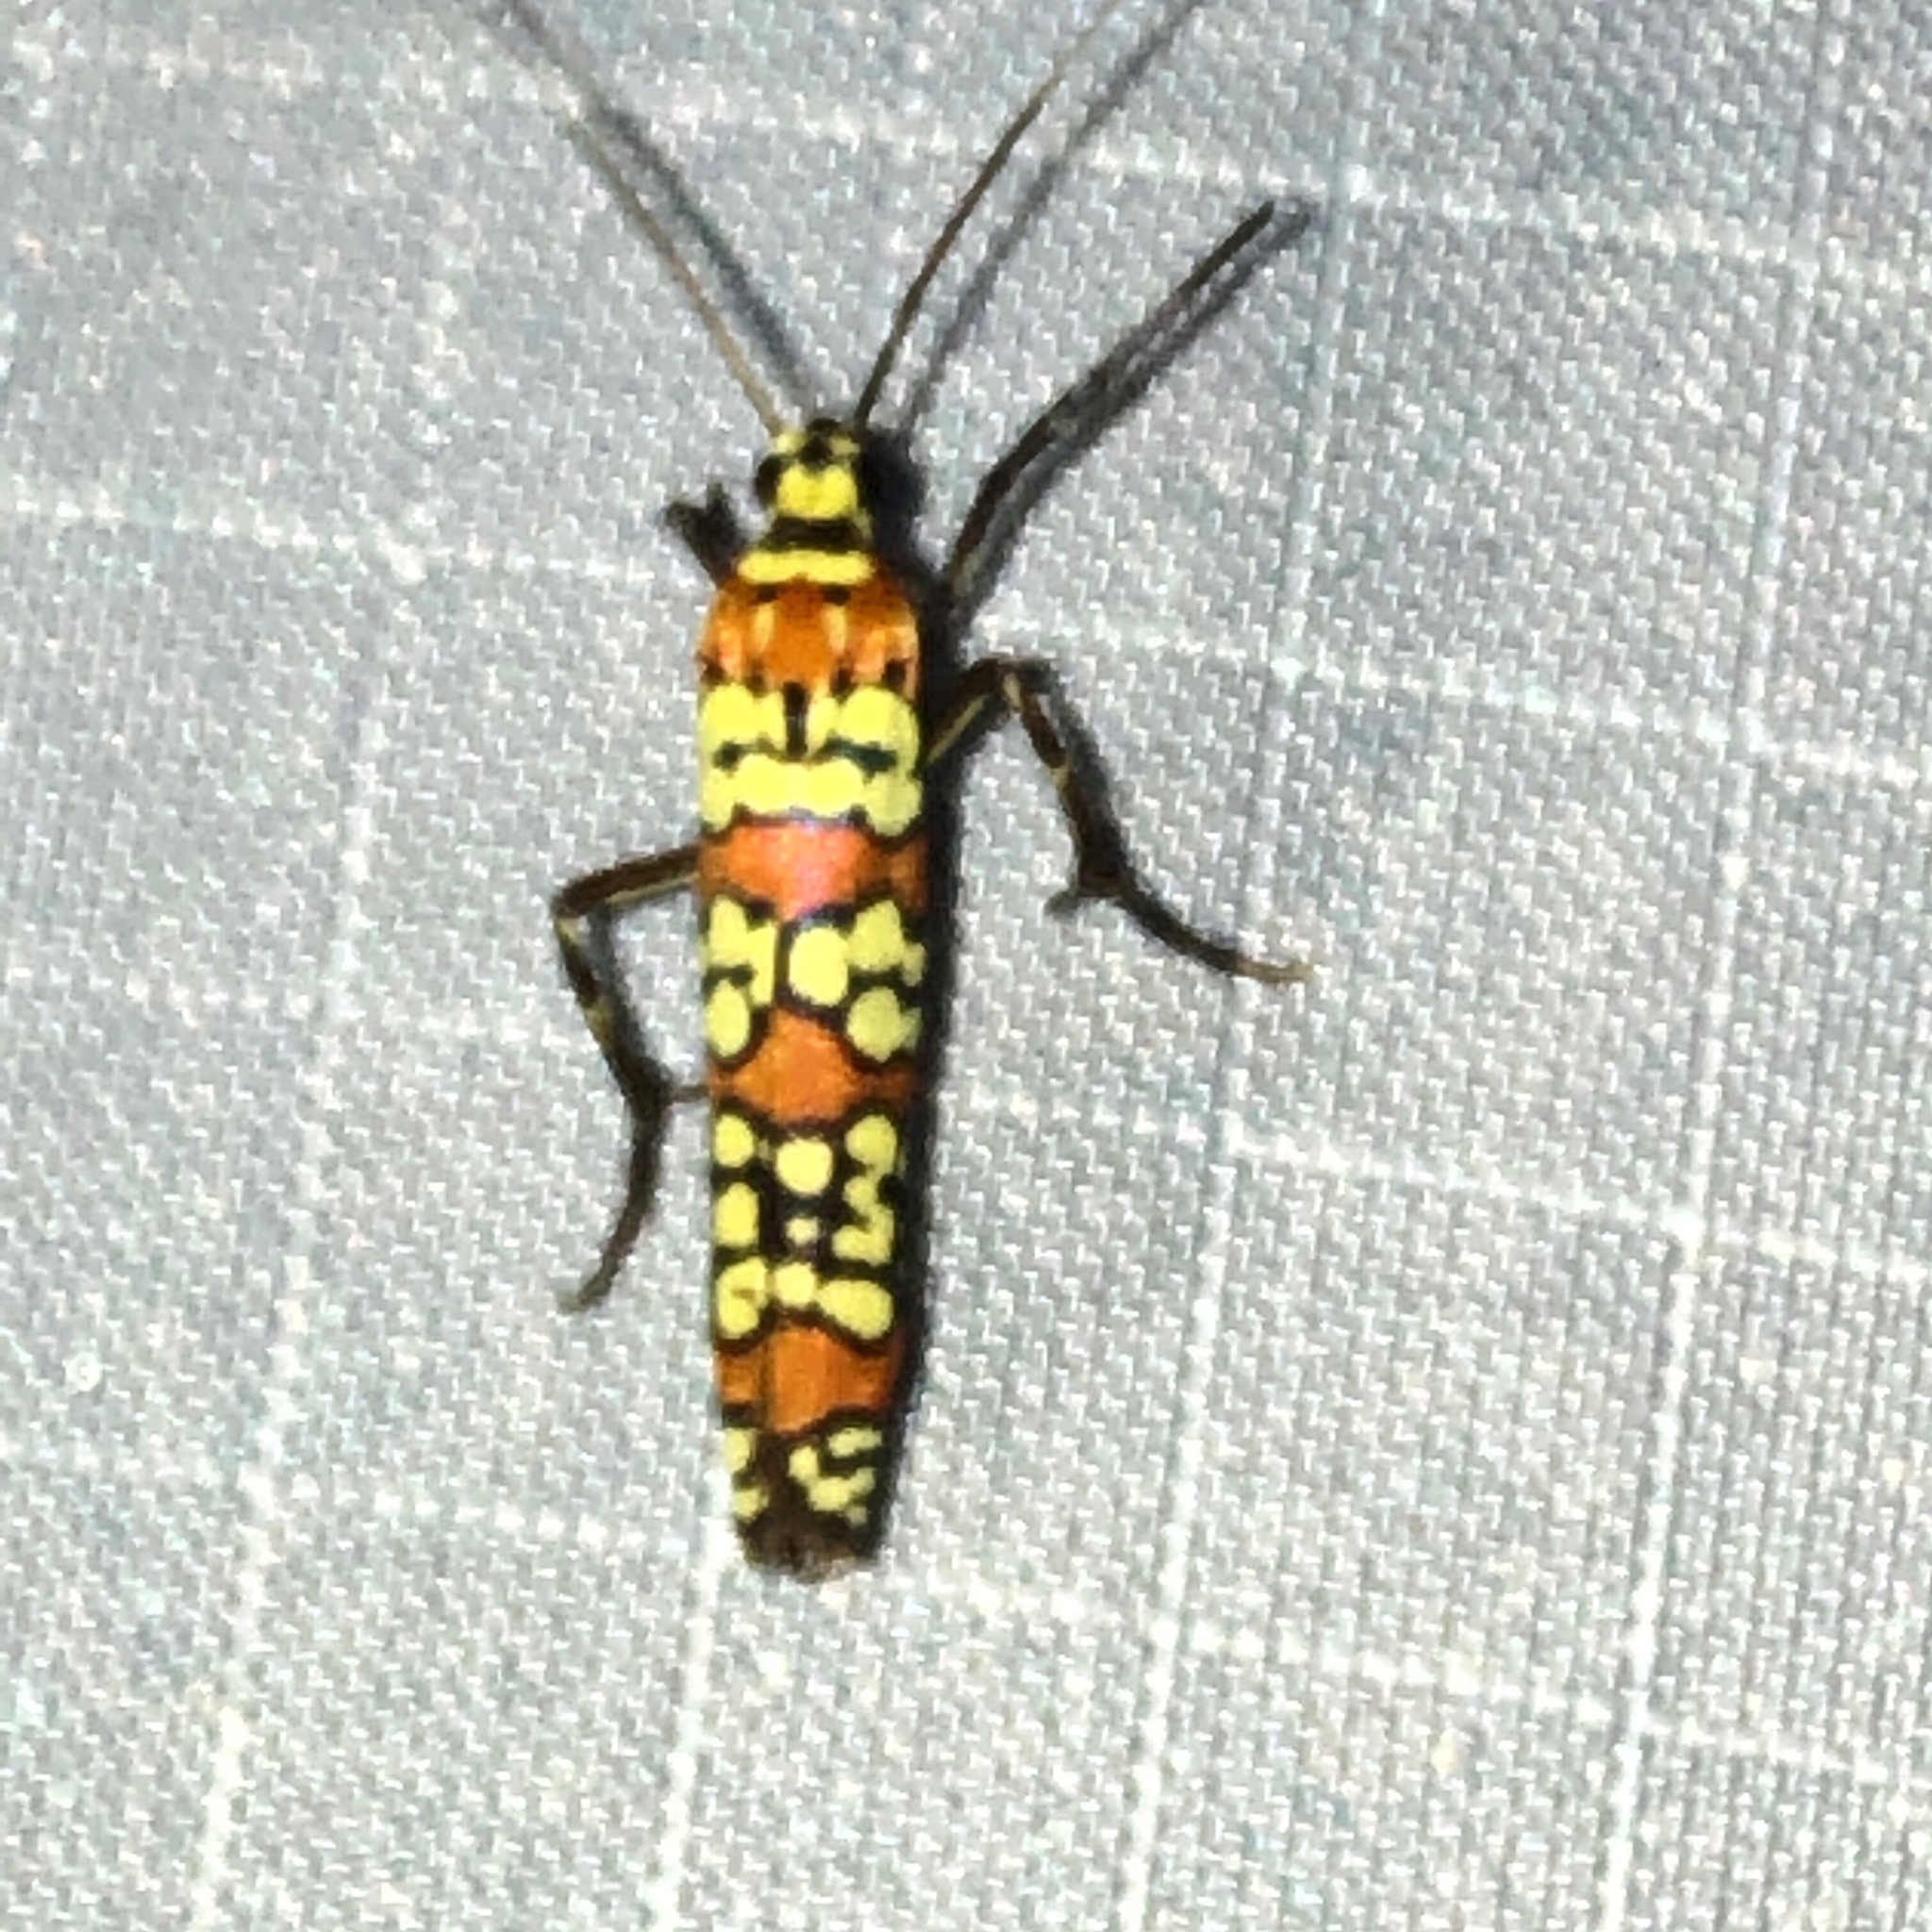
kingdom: Animalia
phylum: Arthropoda
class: Insecta
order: Lepidoptera
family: Attevidae
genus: Atteva
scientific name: Atteva punctella
